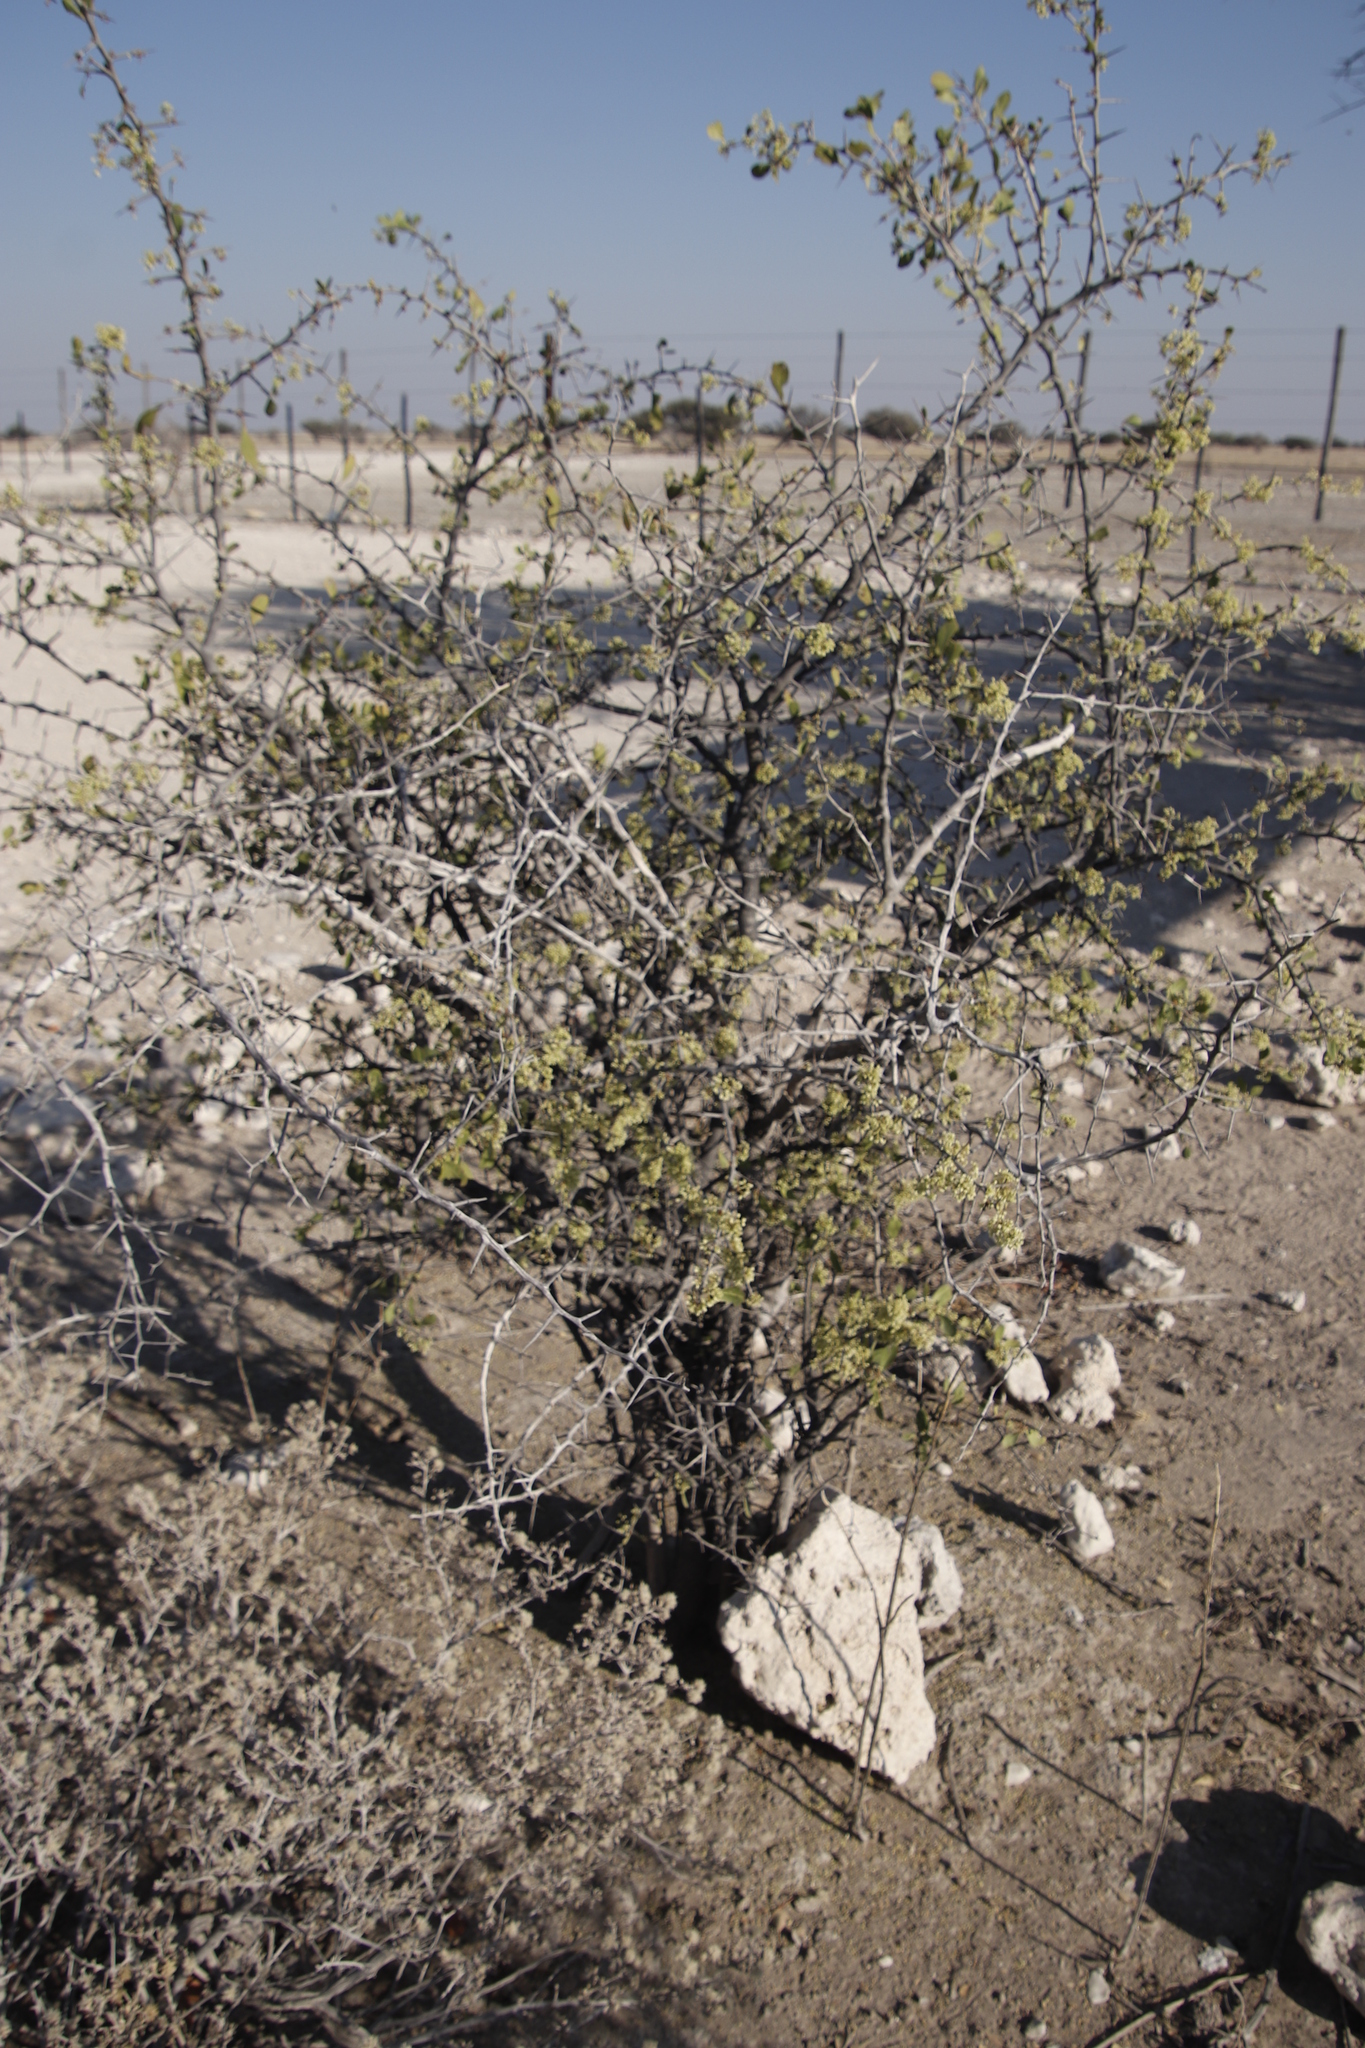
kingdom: Plantae
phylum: Tracheophyta
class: Magnoliopsida
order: Celastrales
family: Celastraceae
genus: Gymnosporia
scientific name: Gymnosporia senegalensis
